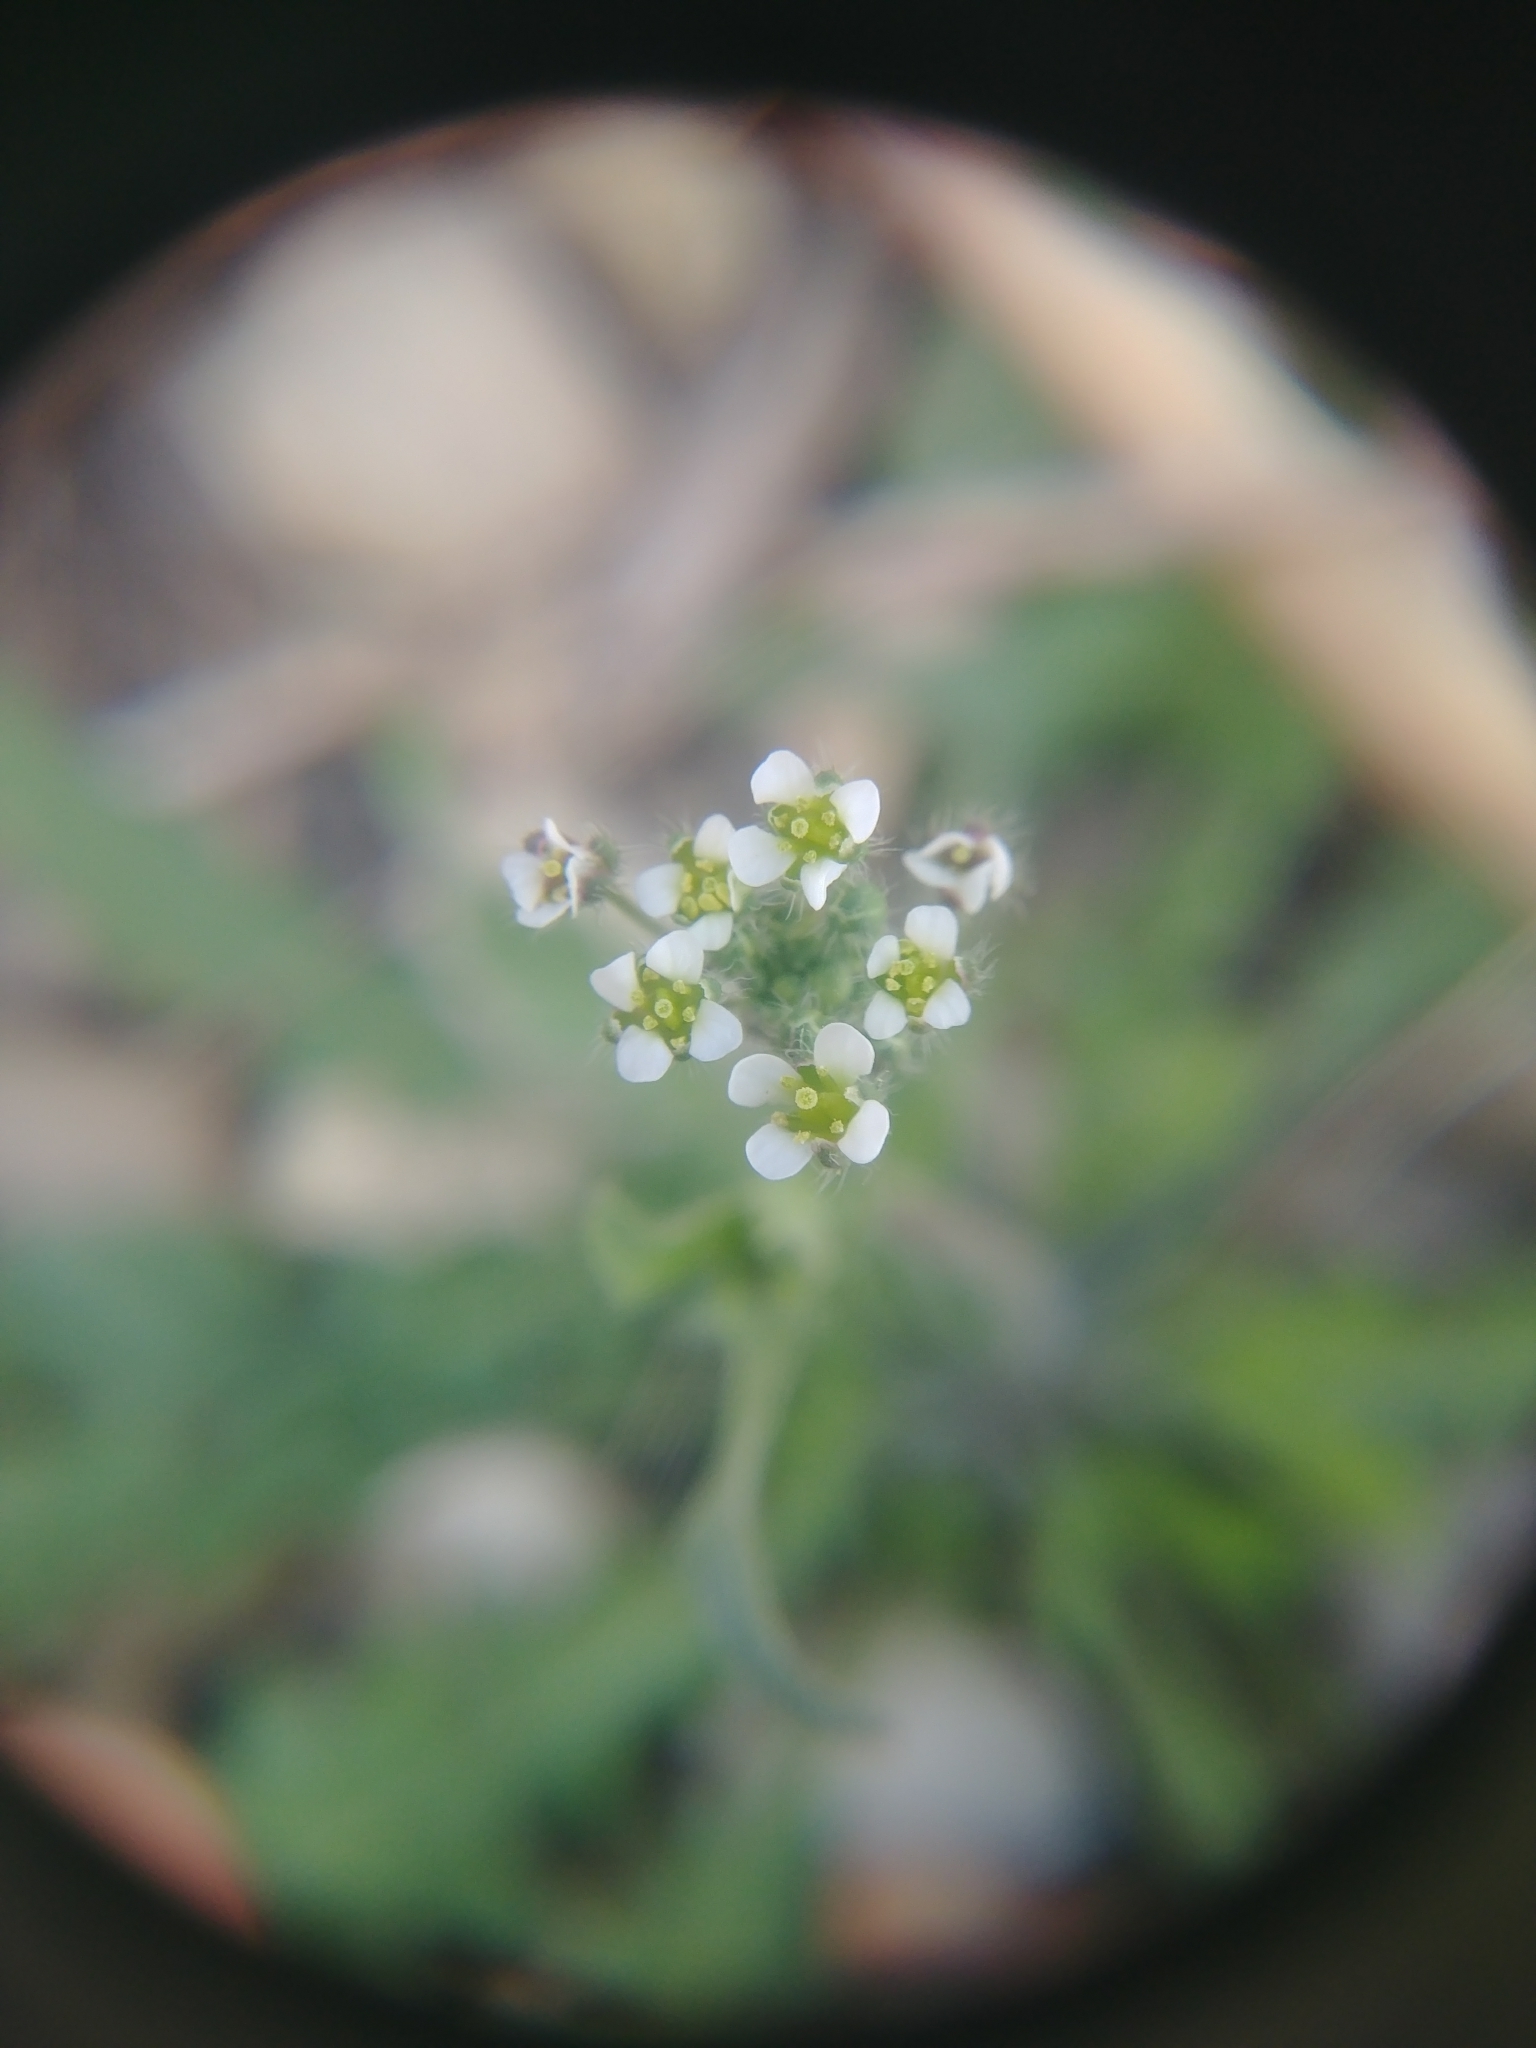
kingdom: Plantae
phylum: Tracheophyta
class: Magnoliopsida
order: Brassicales
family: Brassicaceae
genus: Capsella
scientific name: Capsella bursa-pastoris
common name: Shepherd's purse
